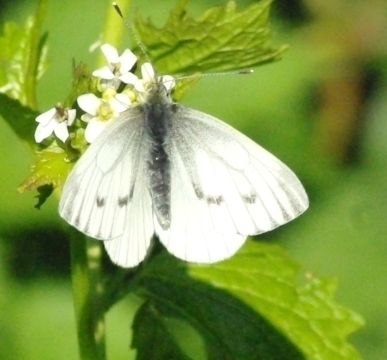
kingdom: Animalia
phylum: Arthropoda
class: Insecta
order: Lepidoptera
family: Pieridae
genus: Pieris
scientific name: Pieris napi
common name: Green-veined white
